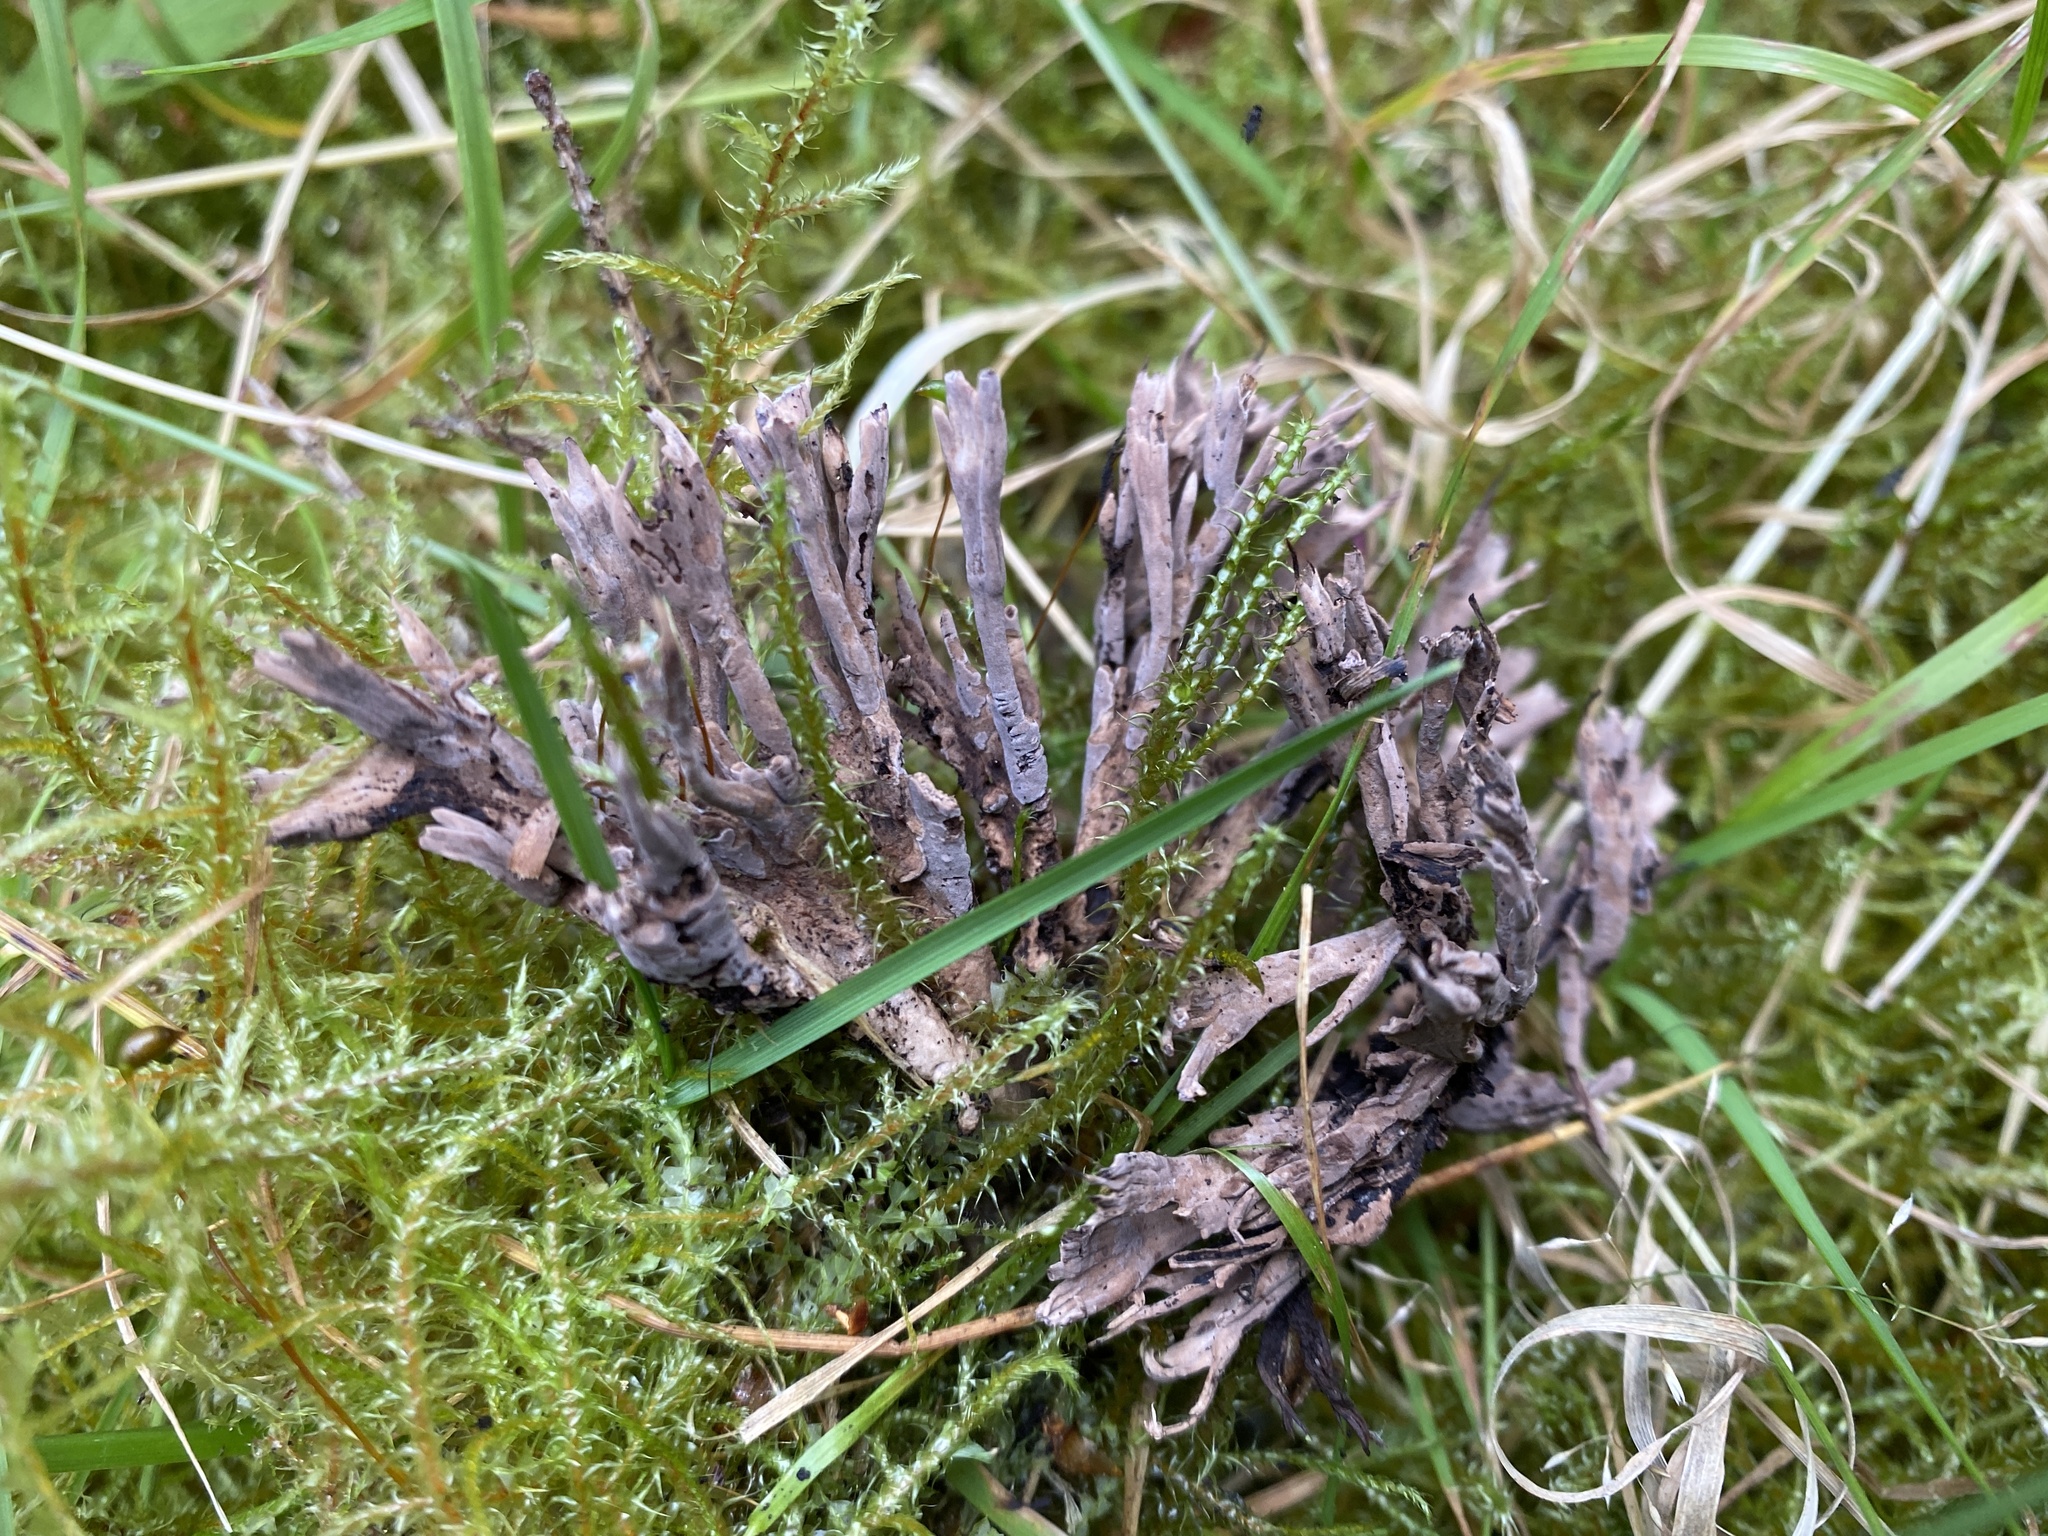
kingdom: Fungi
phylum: Basidiomycota
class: Agaricomycetes
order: Thelephorales
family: Thelephoraceae
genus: Thelephora
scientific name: Thelephora palmata
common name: Stinking earthfan
